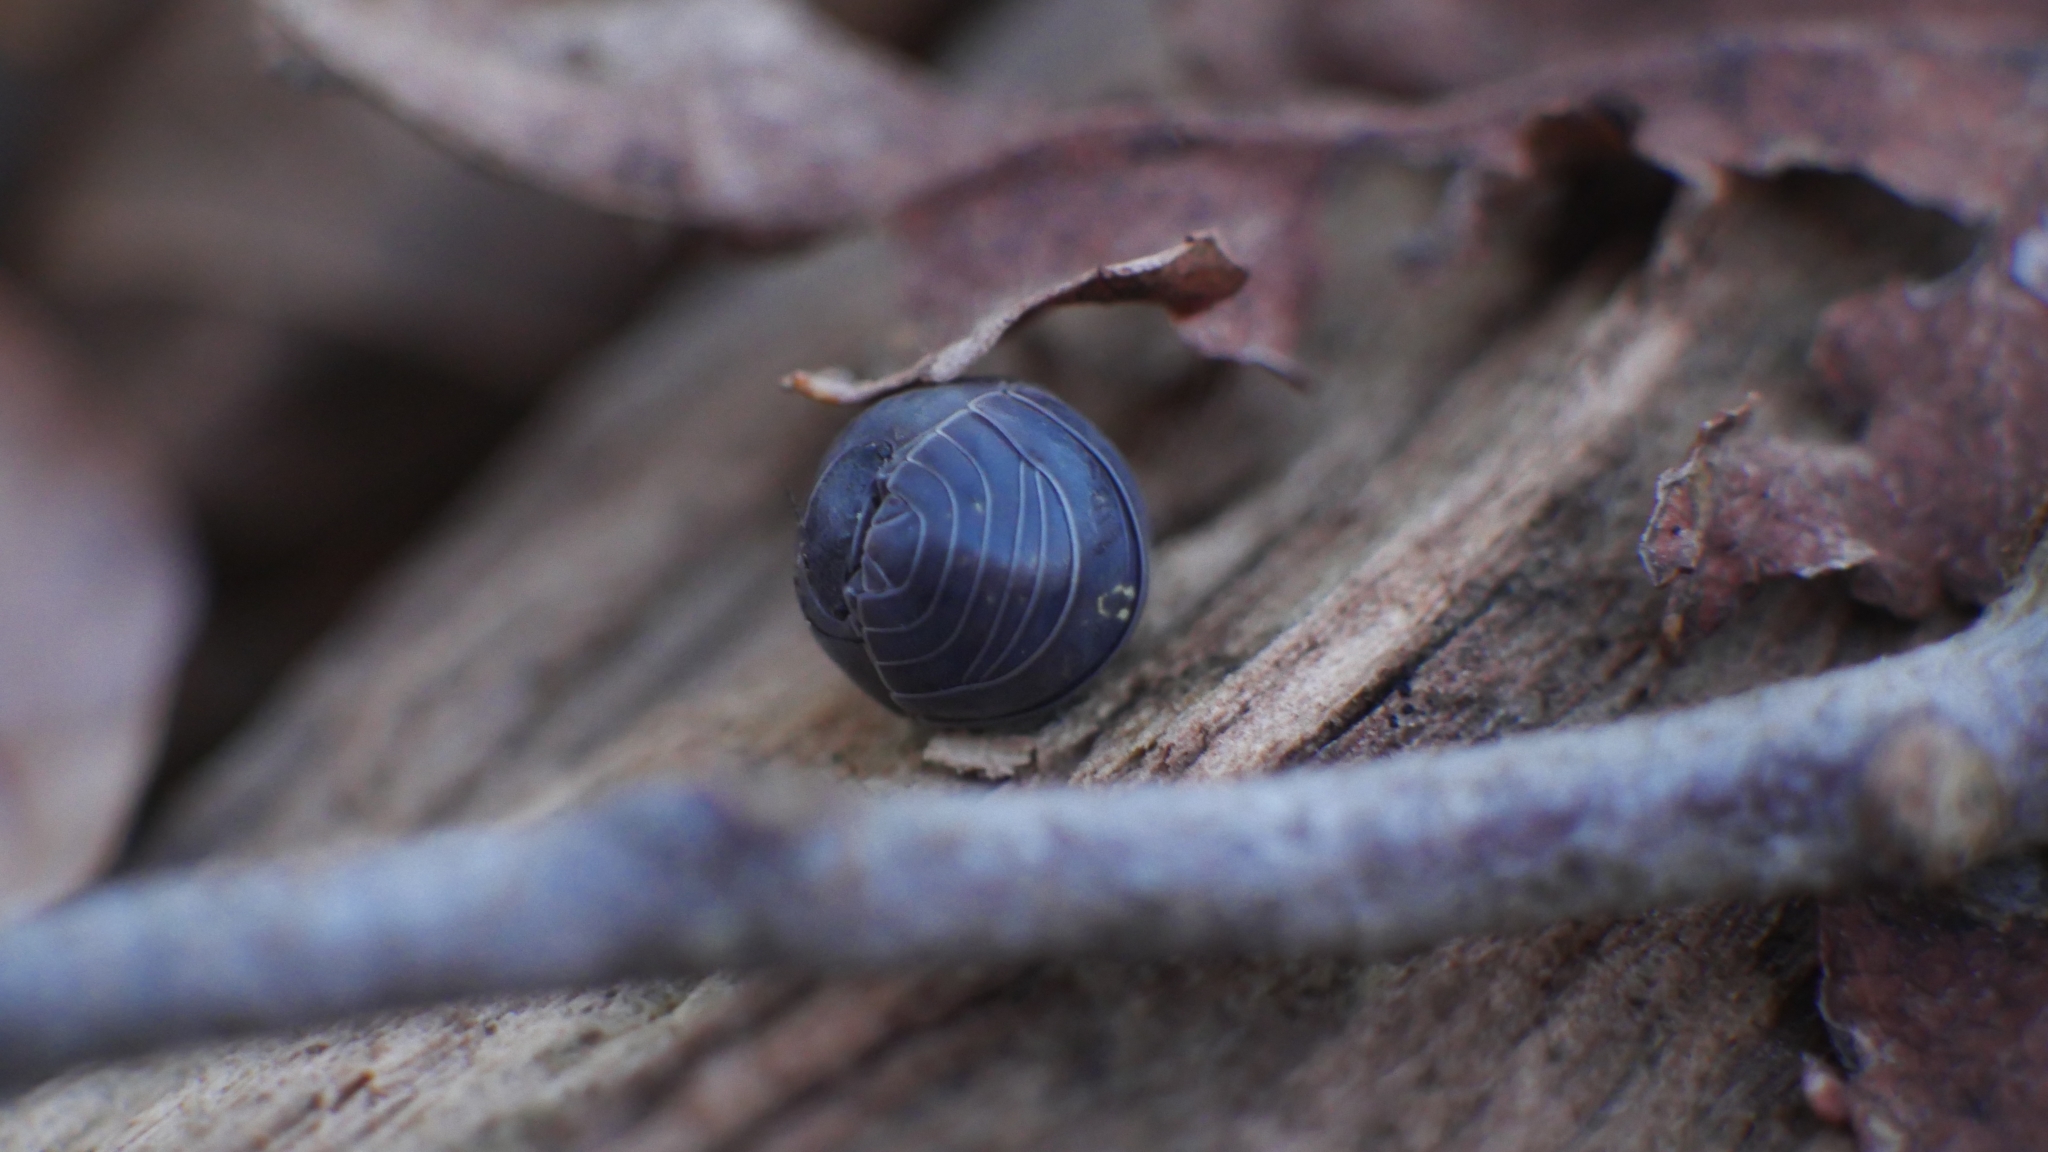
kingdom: Animalia
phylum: Arthropoda
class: Malacostraca
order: Isopoda
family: Armadillidiidae
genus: Armadillidium
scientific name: Armadillidium vulgare
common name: Common pill woodlouse
